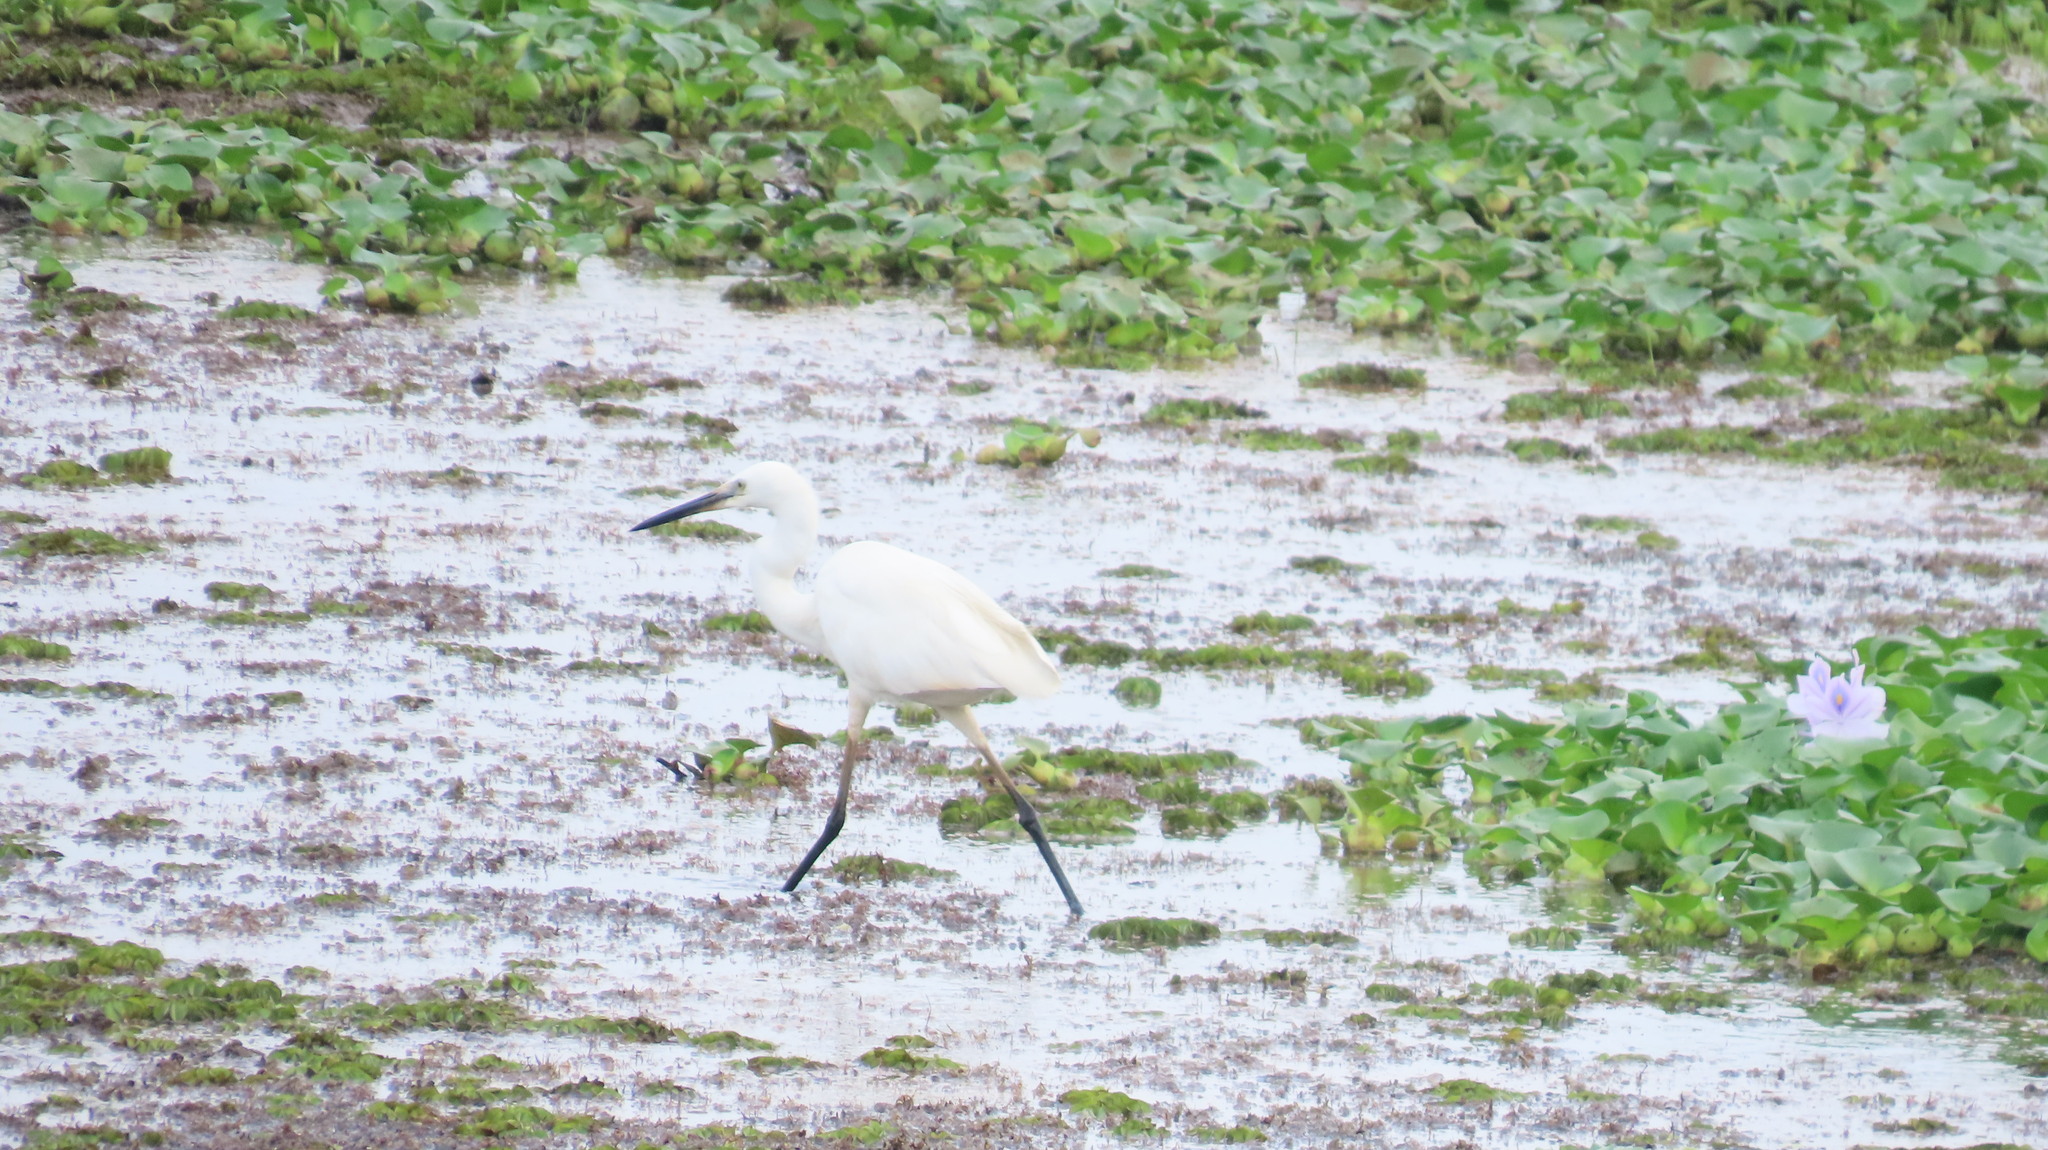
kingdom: Animalia
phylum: Chordata
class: Aves
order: Pelecaniformes
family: Ardeidae
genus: Egretta
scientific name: Egretta garzetta
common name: Little egret
